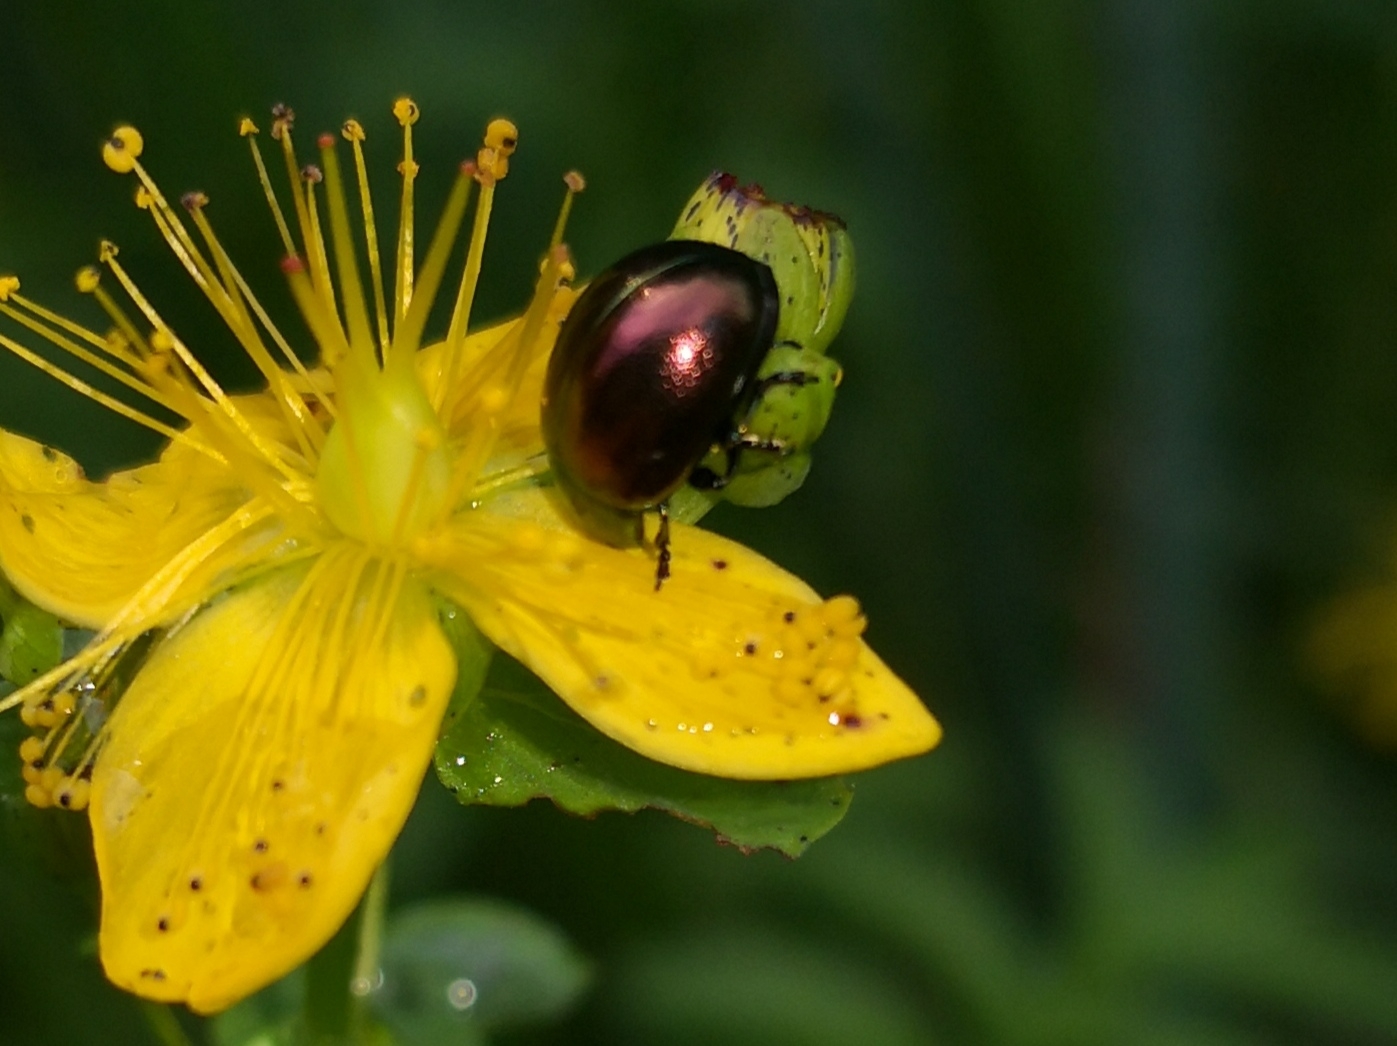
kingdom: Animalia
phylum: Arthropoda
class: Insecta
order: Coleoptera
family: Chrysomelidae
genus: Chrysolina
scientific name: Chrysolina varians
